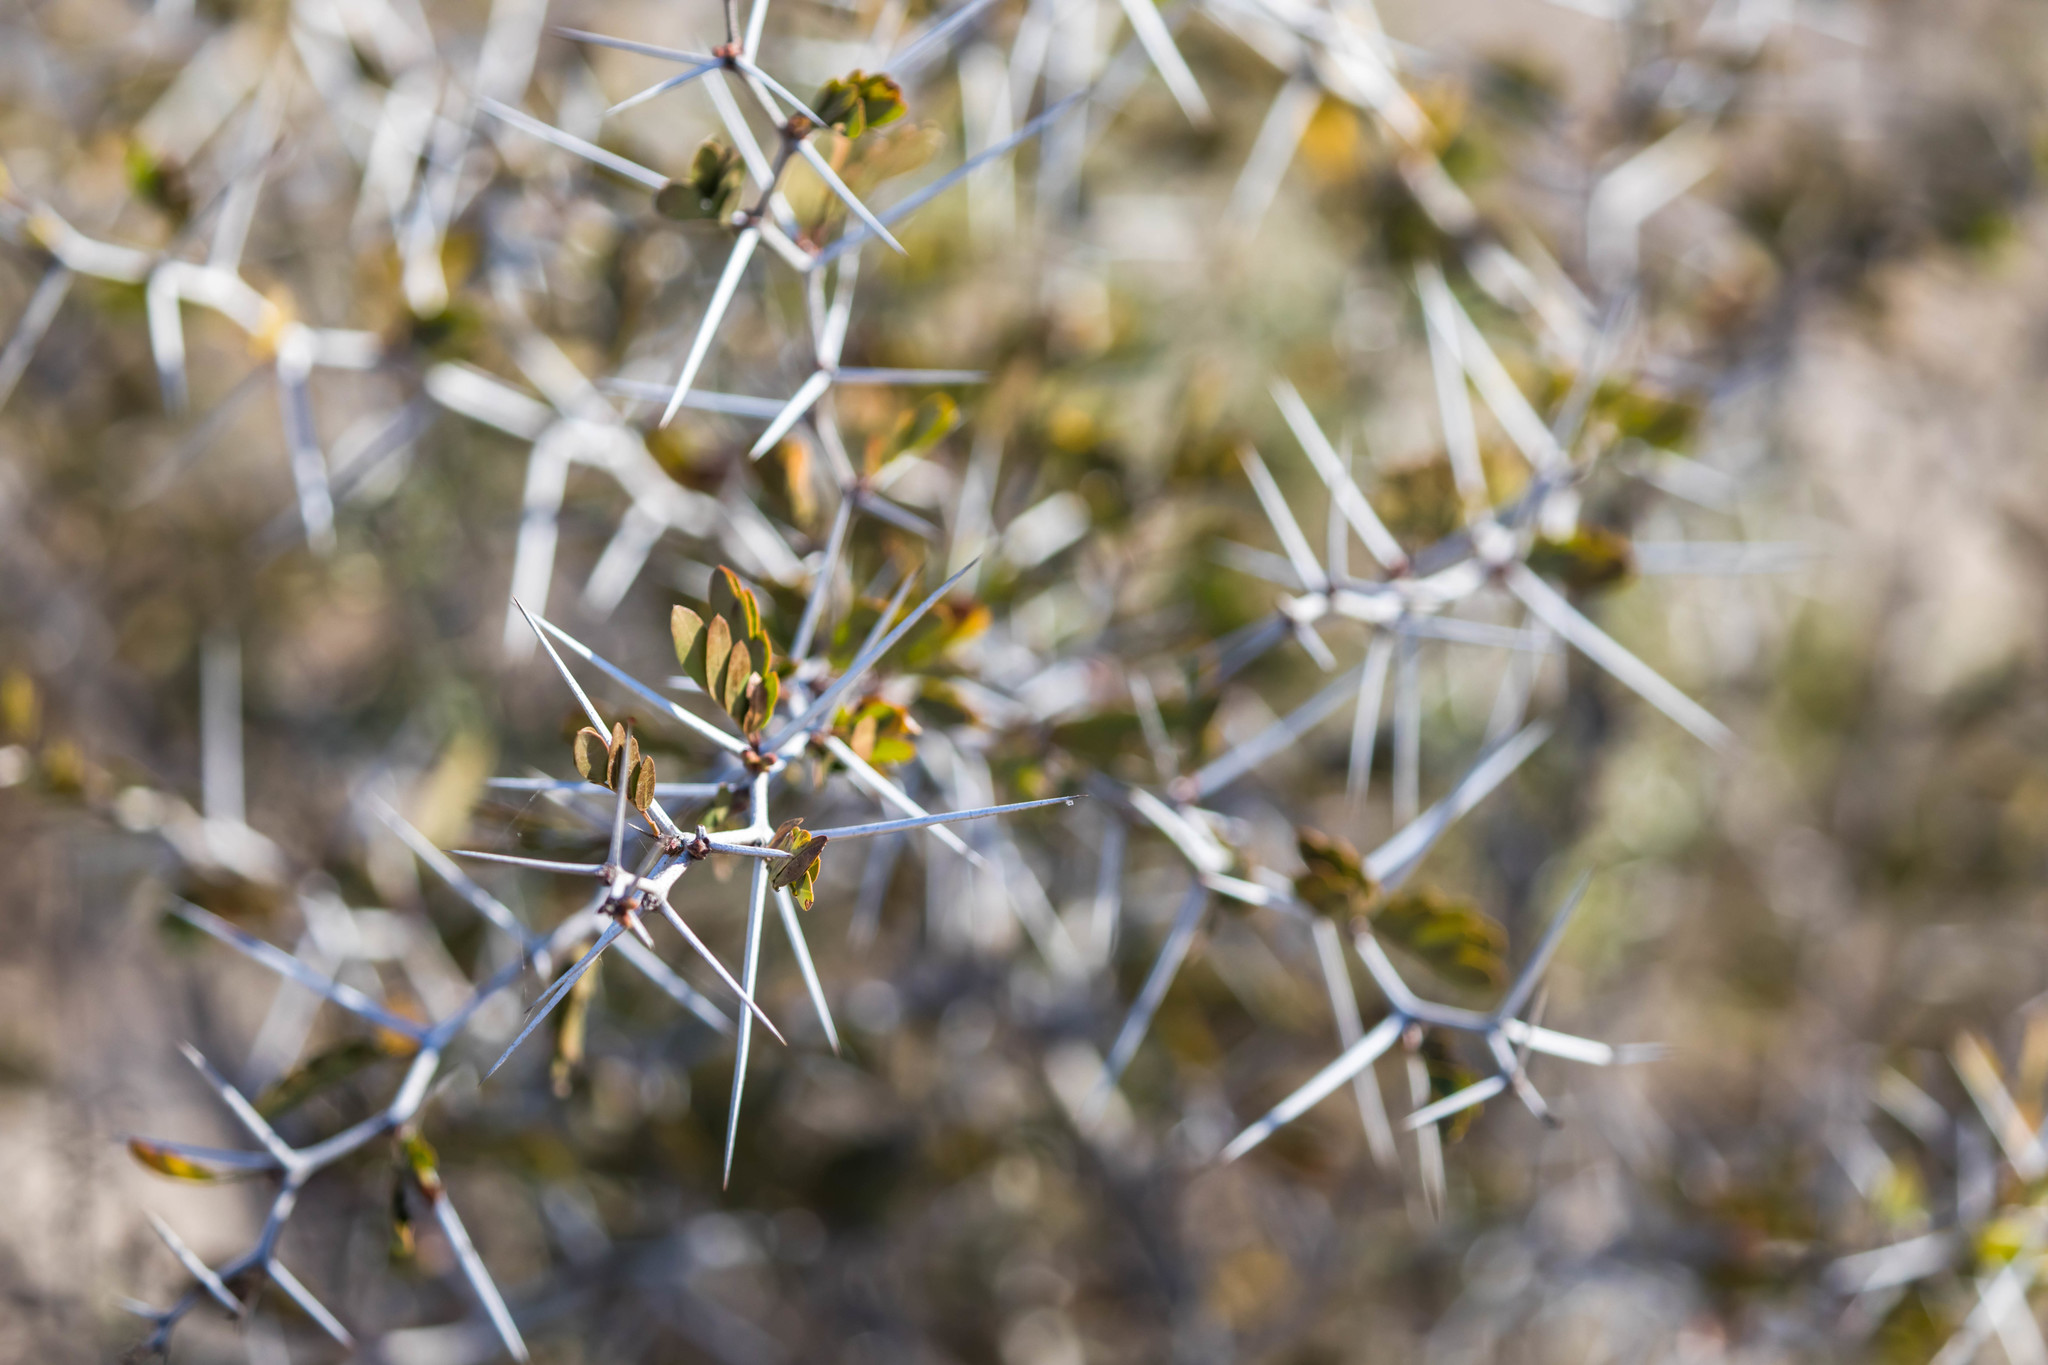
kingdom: Plantae
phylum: Tracheophyta
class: Magnoliopsida
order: Fabales
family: Fabaceae
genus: Vachellia
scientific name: Vachellia rigidula
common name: Blackbrush
